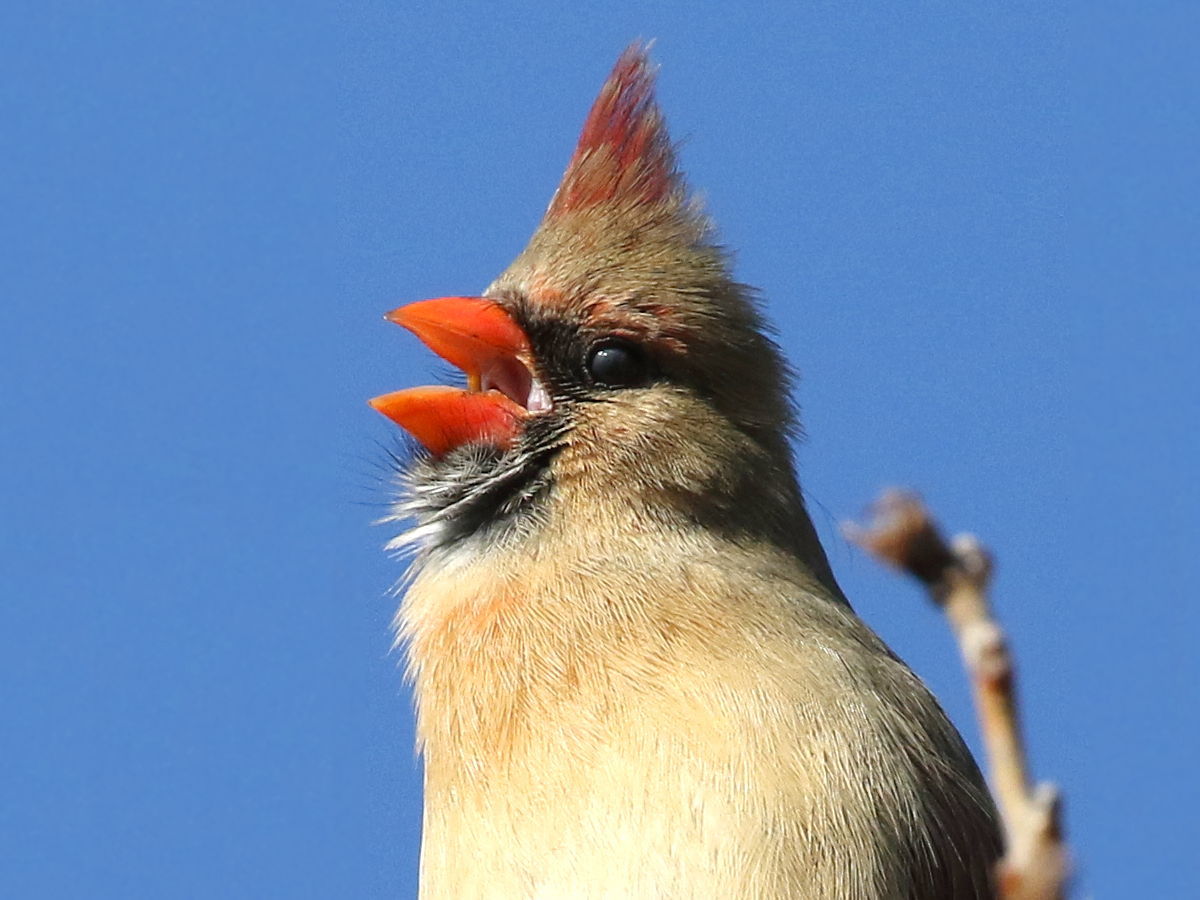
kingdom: Animalia
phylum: Chordata
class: Aves
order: Passeriformes
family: Cardinalidae
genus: Cardinalis
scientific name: Cardinalis cardinalis
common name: Northern cardinal
